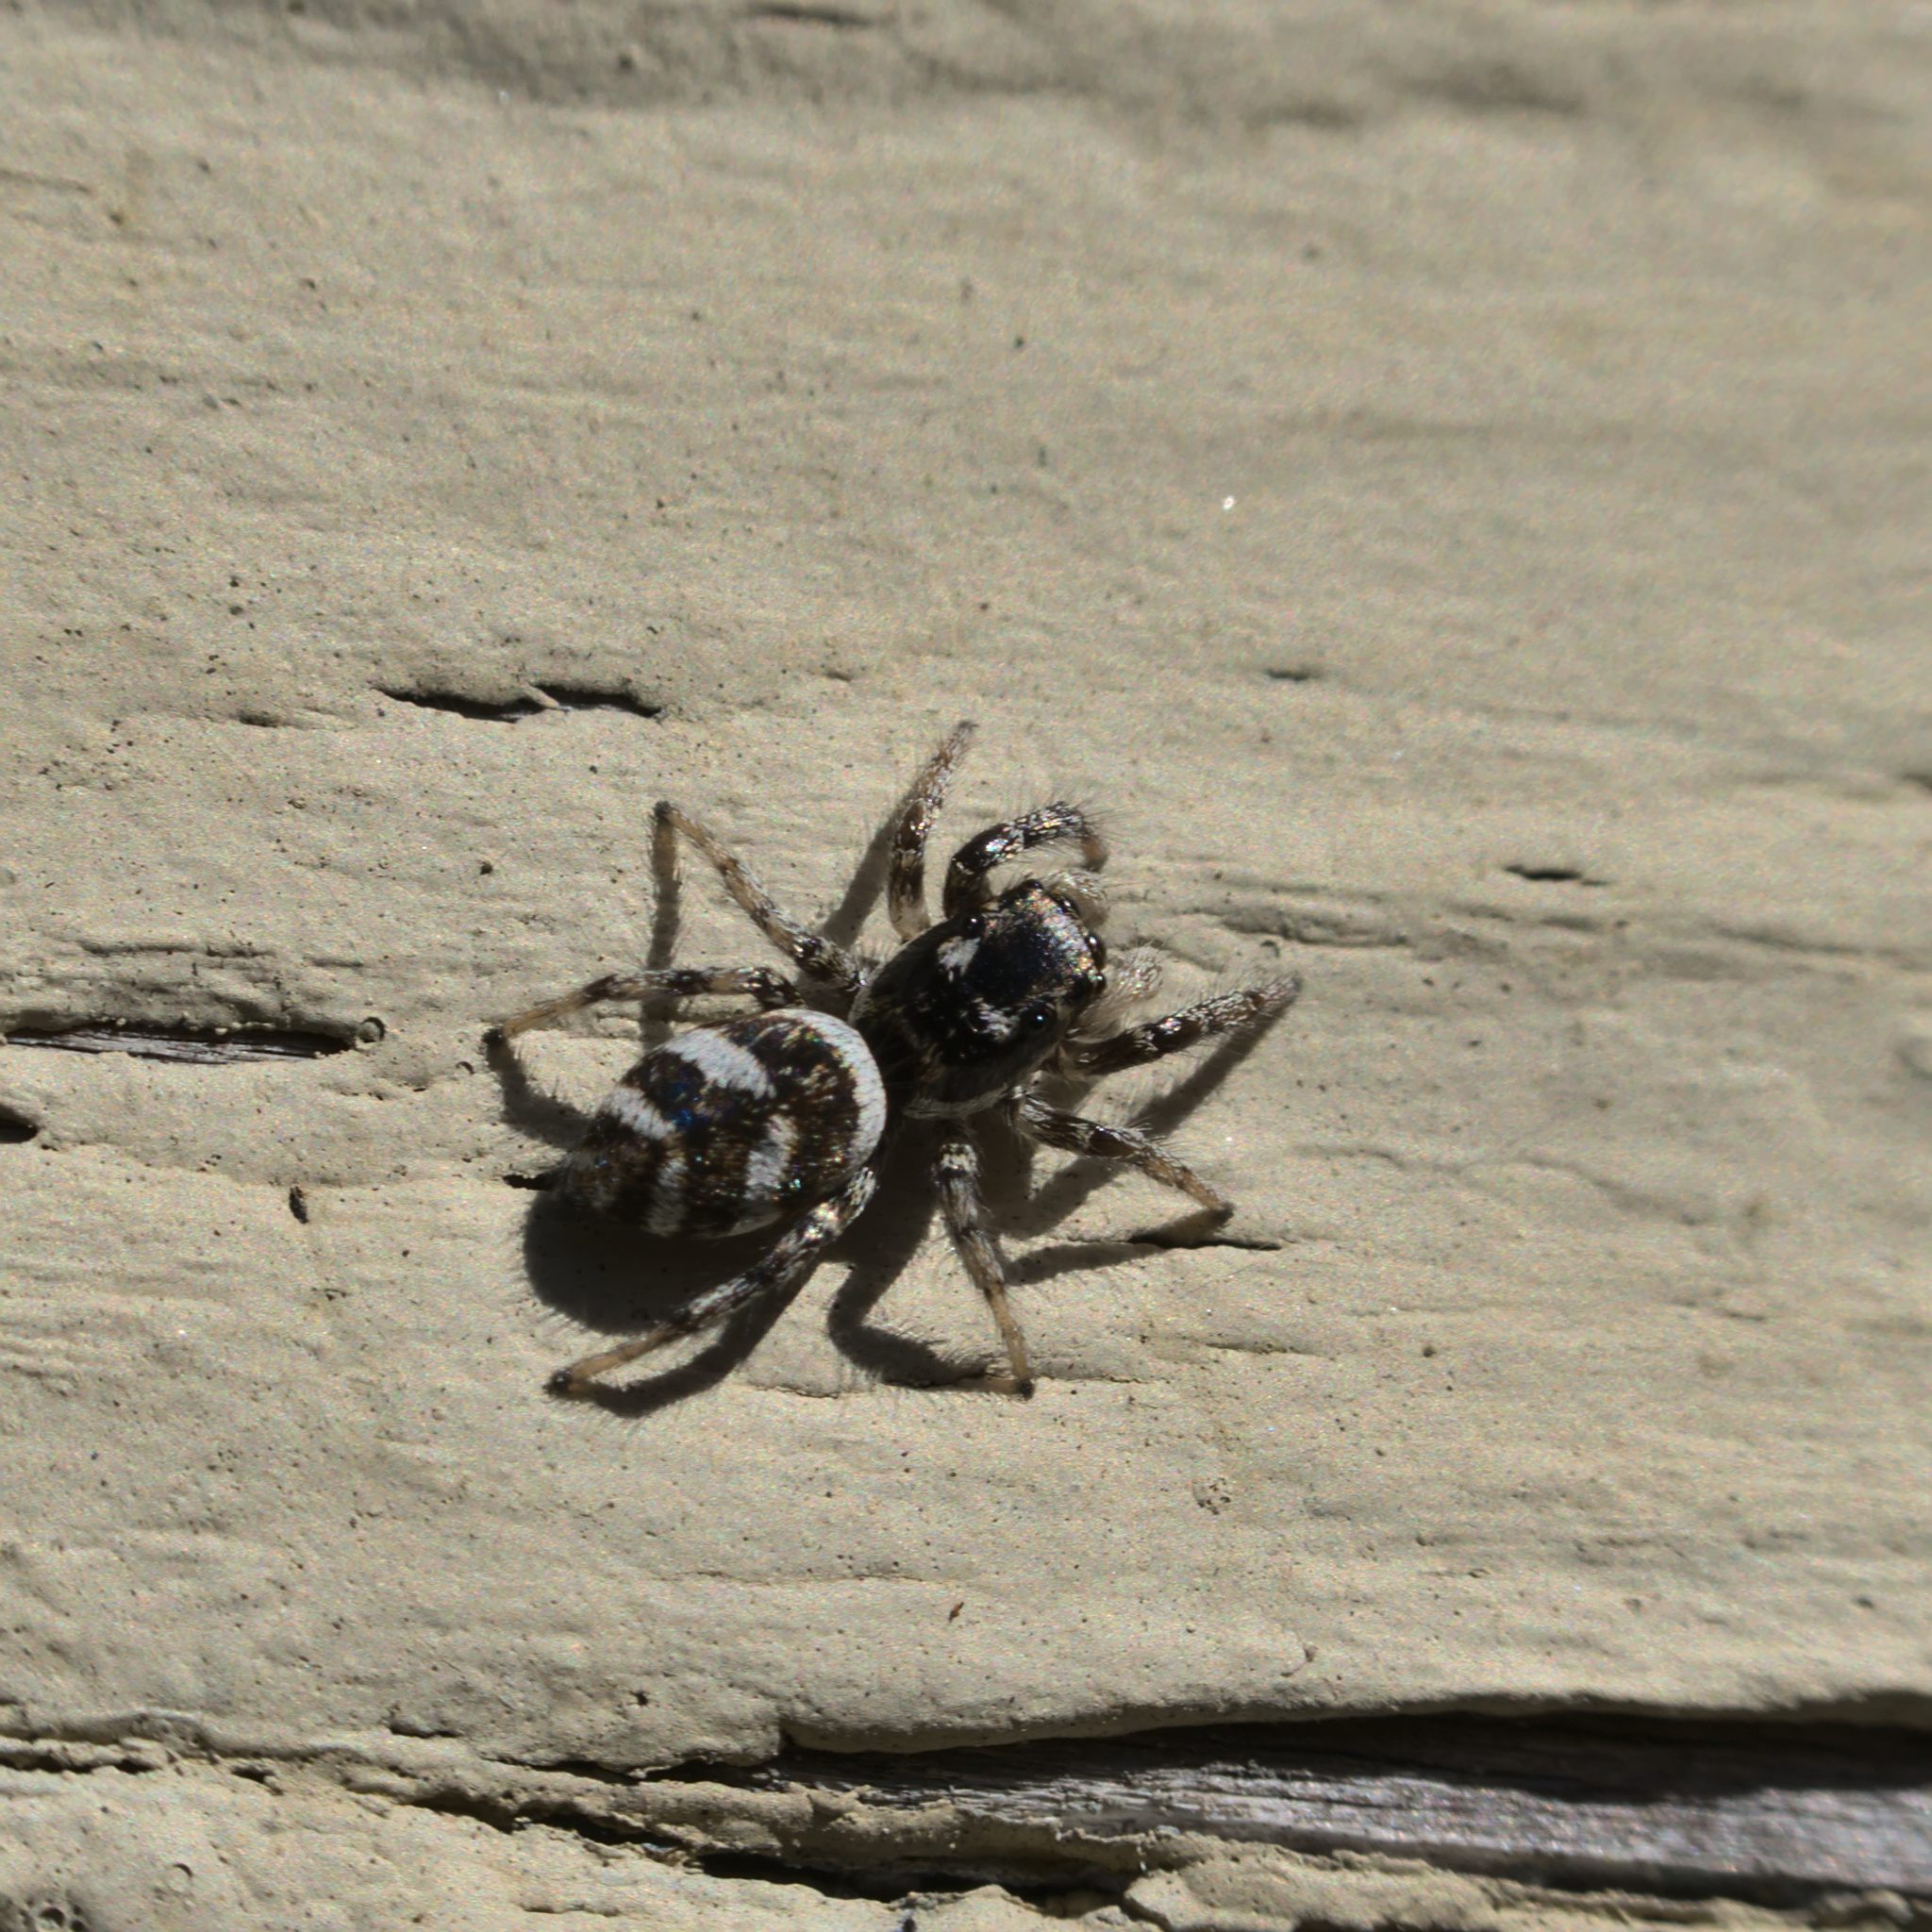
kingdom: Animalia
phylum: Arthropoda
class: Arachnida
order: Araneae
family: Salticidae
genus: Salticus
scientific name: Salticus scenicus
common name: Zebra jumper
